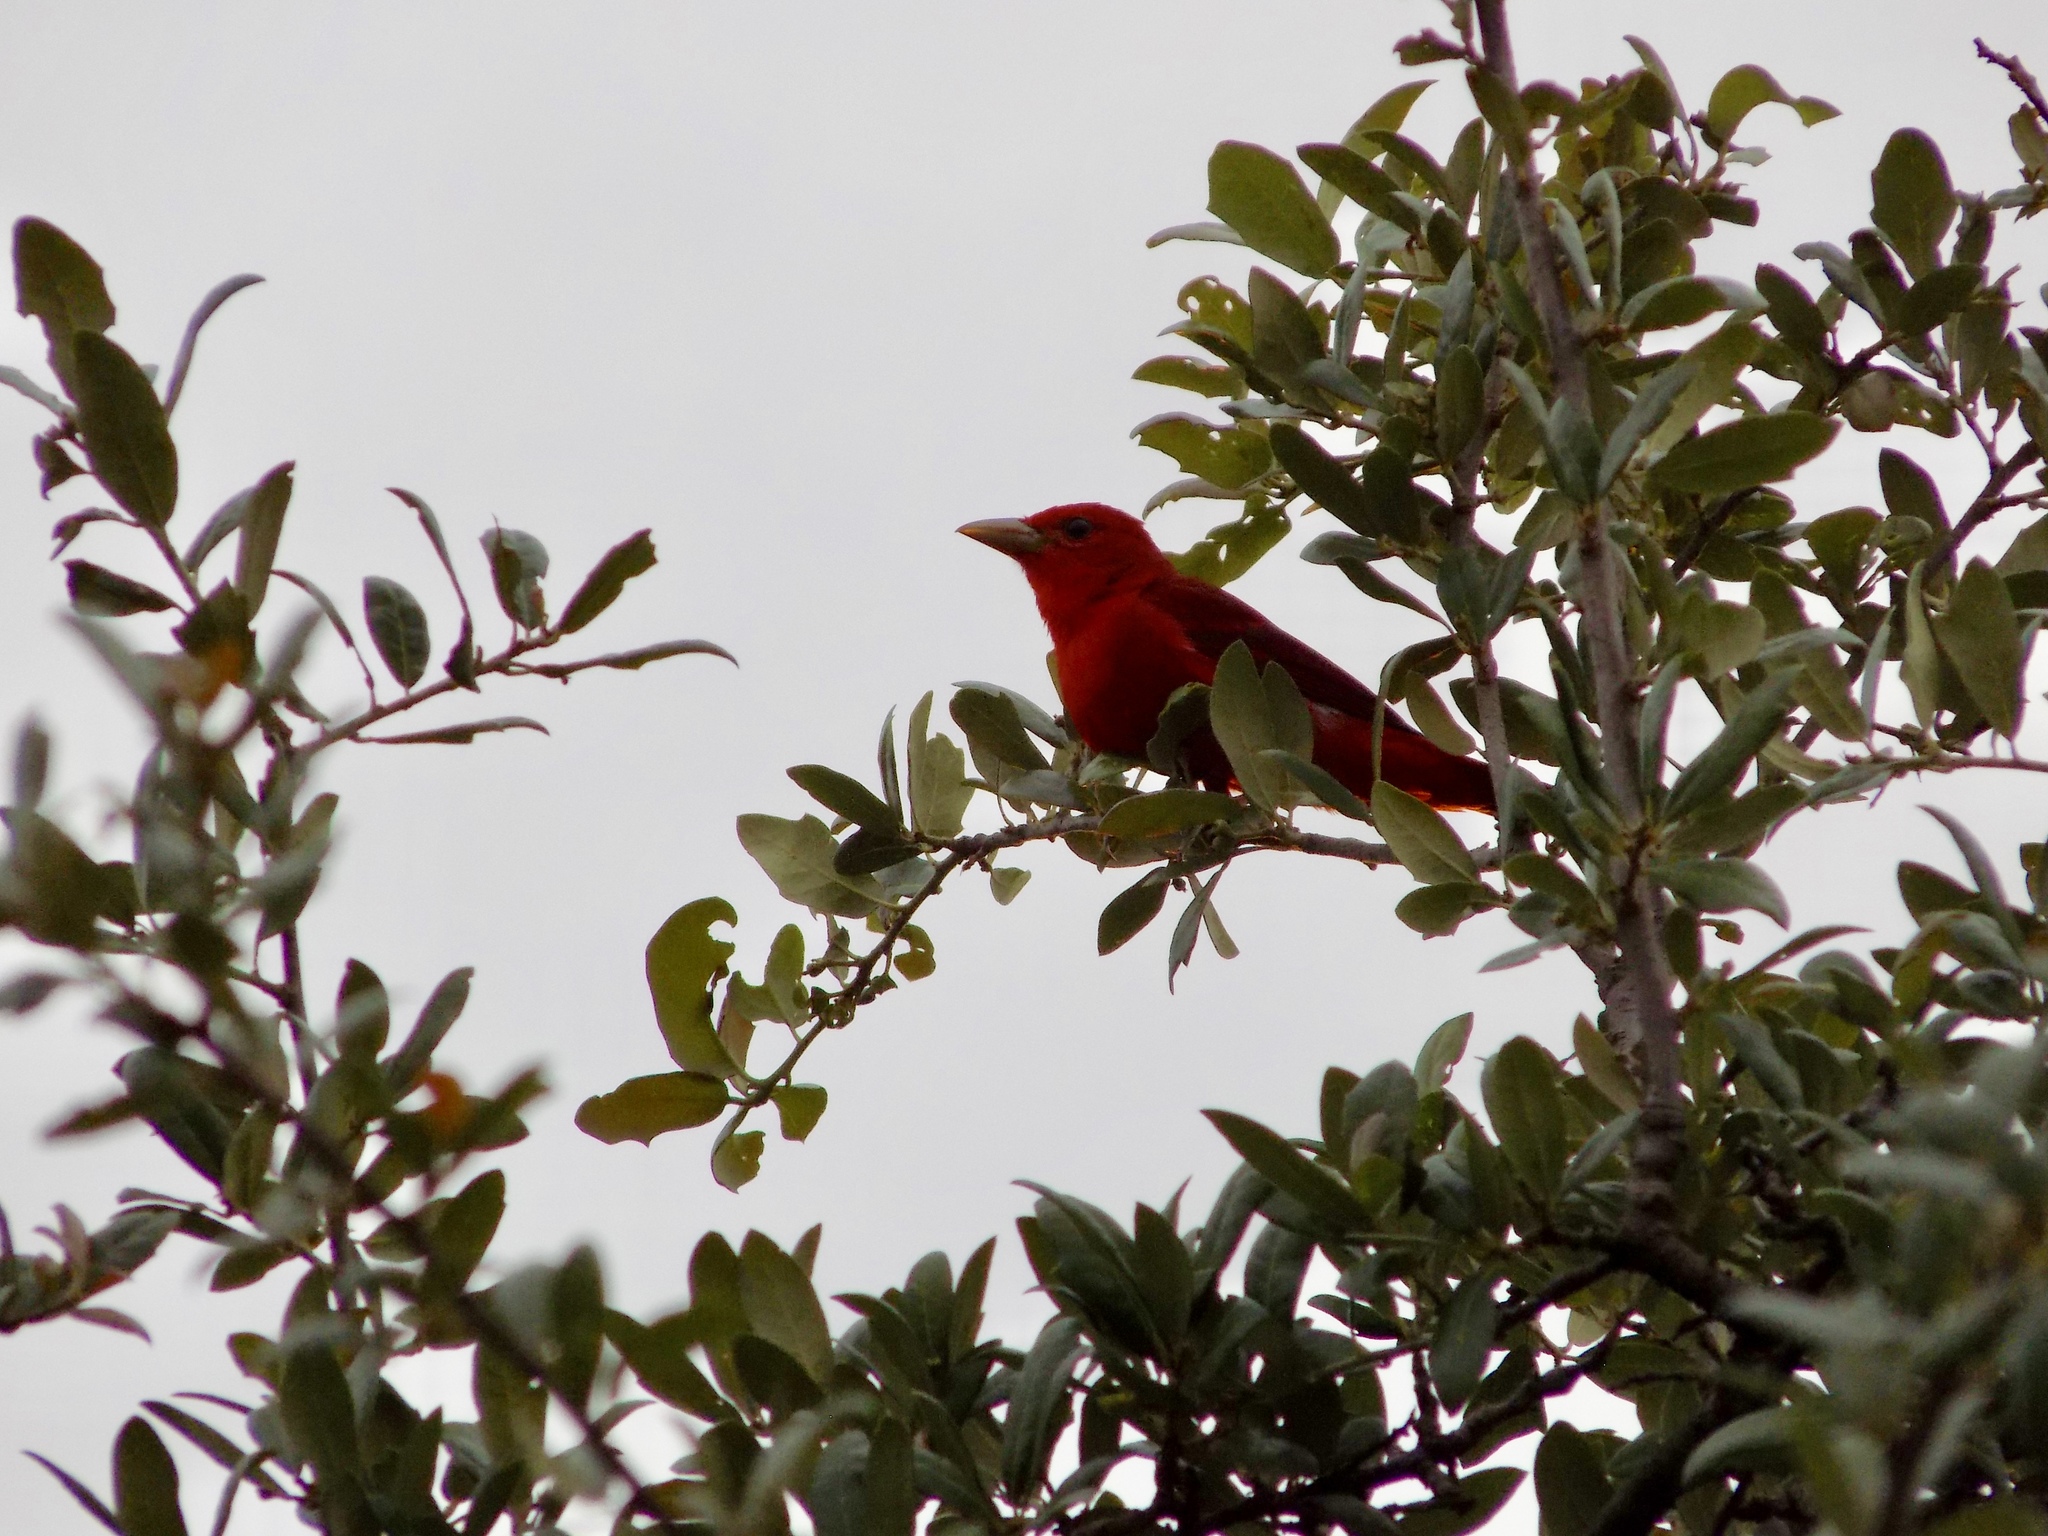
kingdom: Animalia
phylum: Chordata
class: Aves
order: Passeriformes
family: Cardinalidae
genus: Piranga
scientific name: Piranga rubra
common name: Summer tanager
